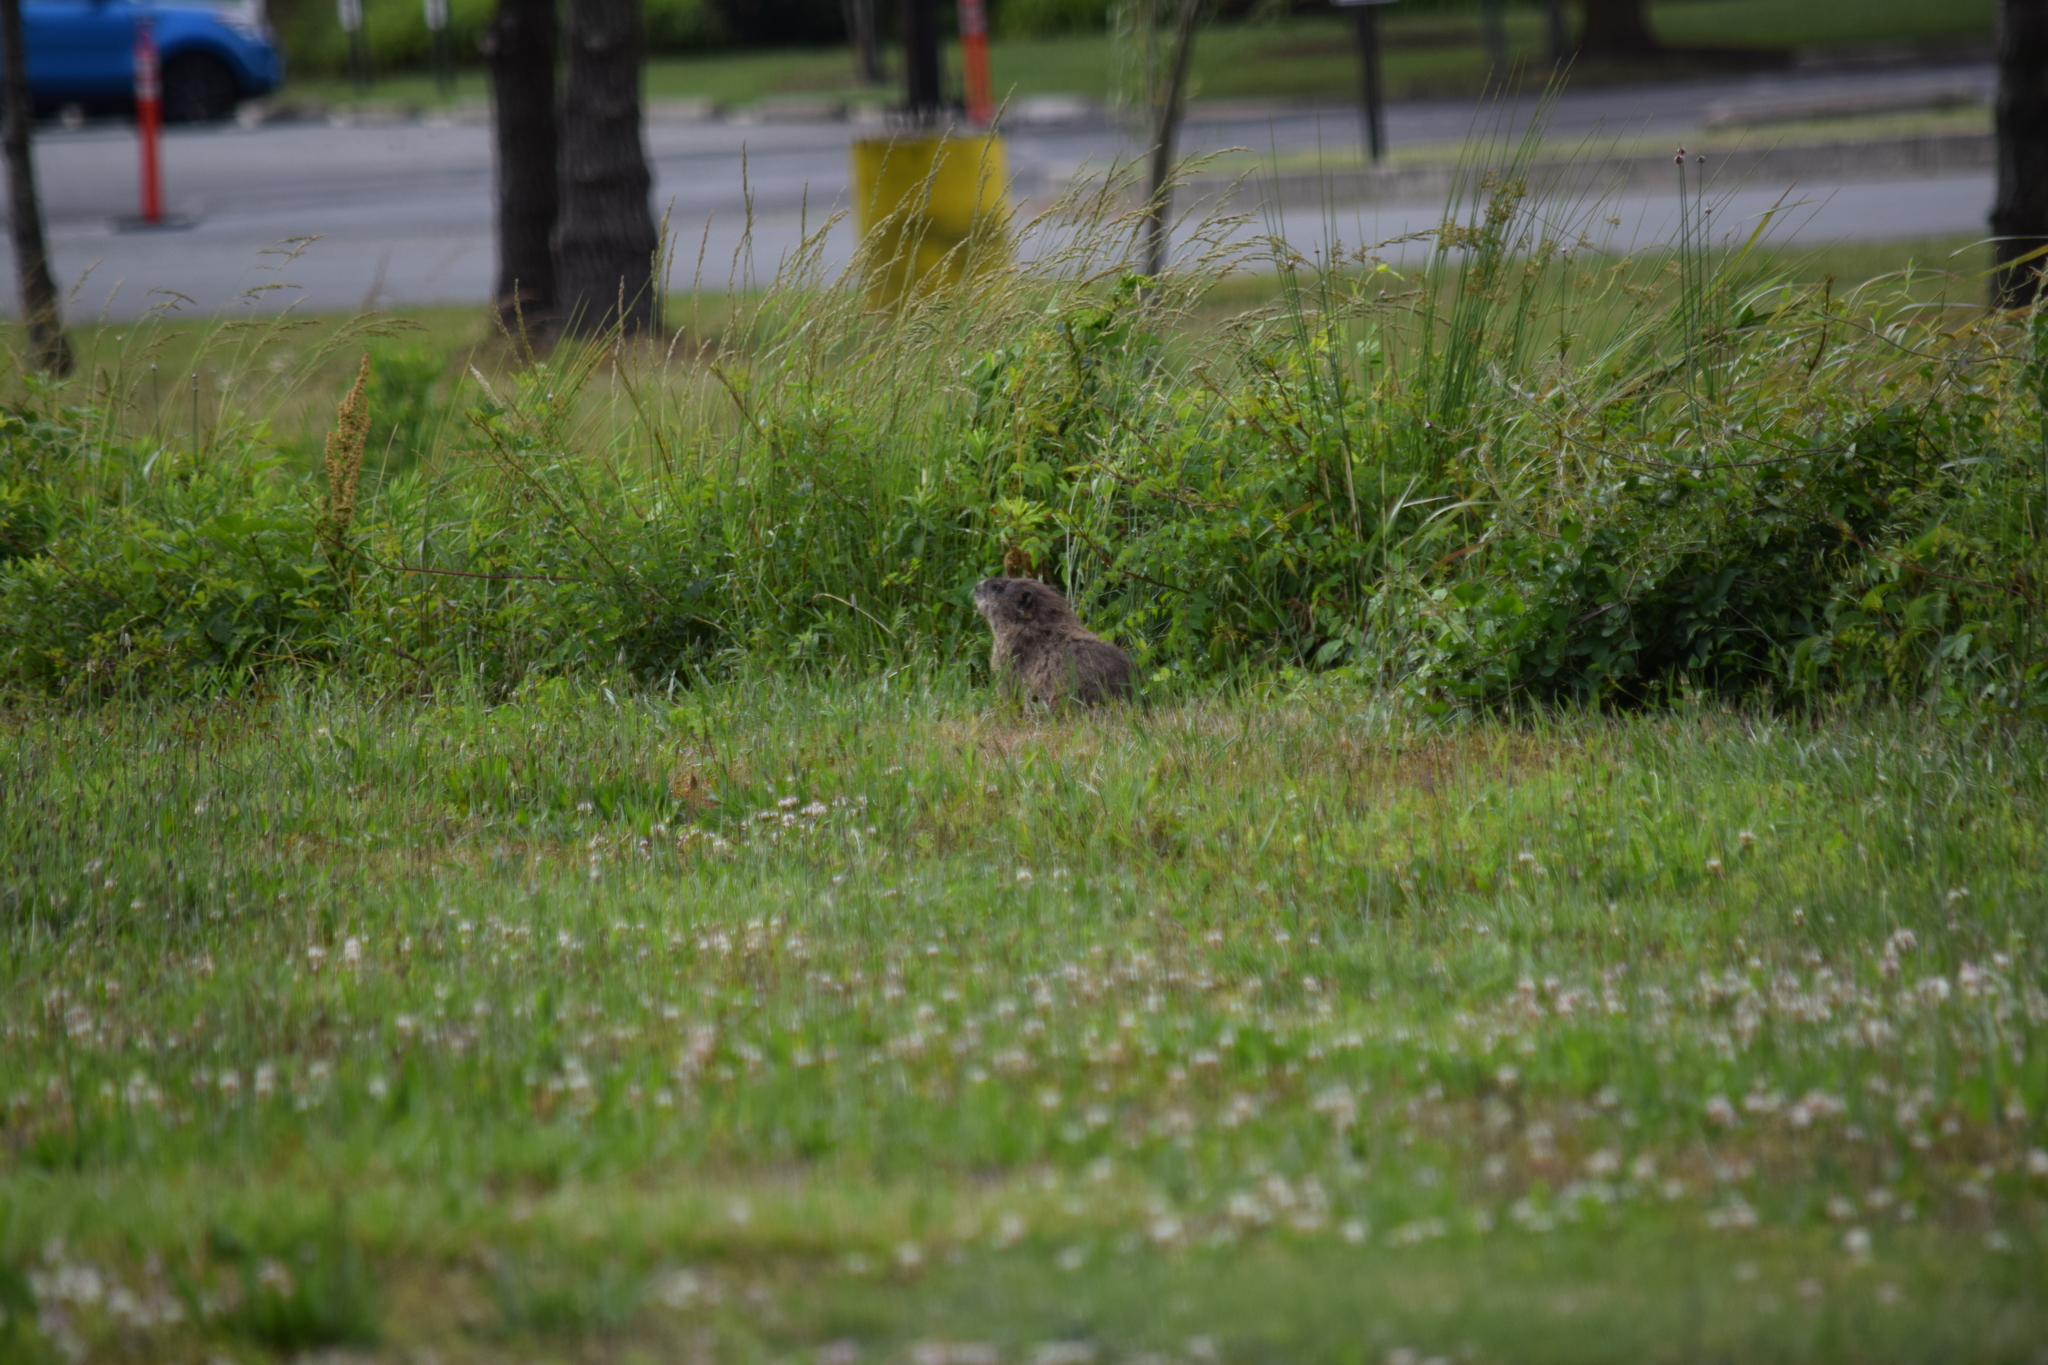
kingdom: Animalia
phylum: Chordata
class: Mammalia
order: Rodentia
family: Sciuridae
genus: Marmota
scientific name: Marmota monax
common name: Groundhog
